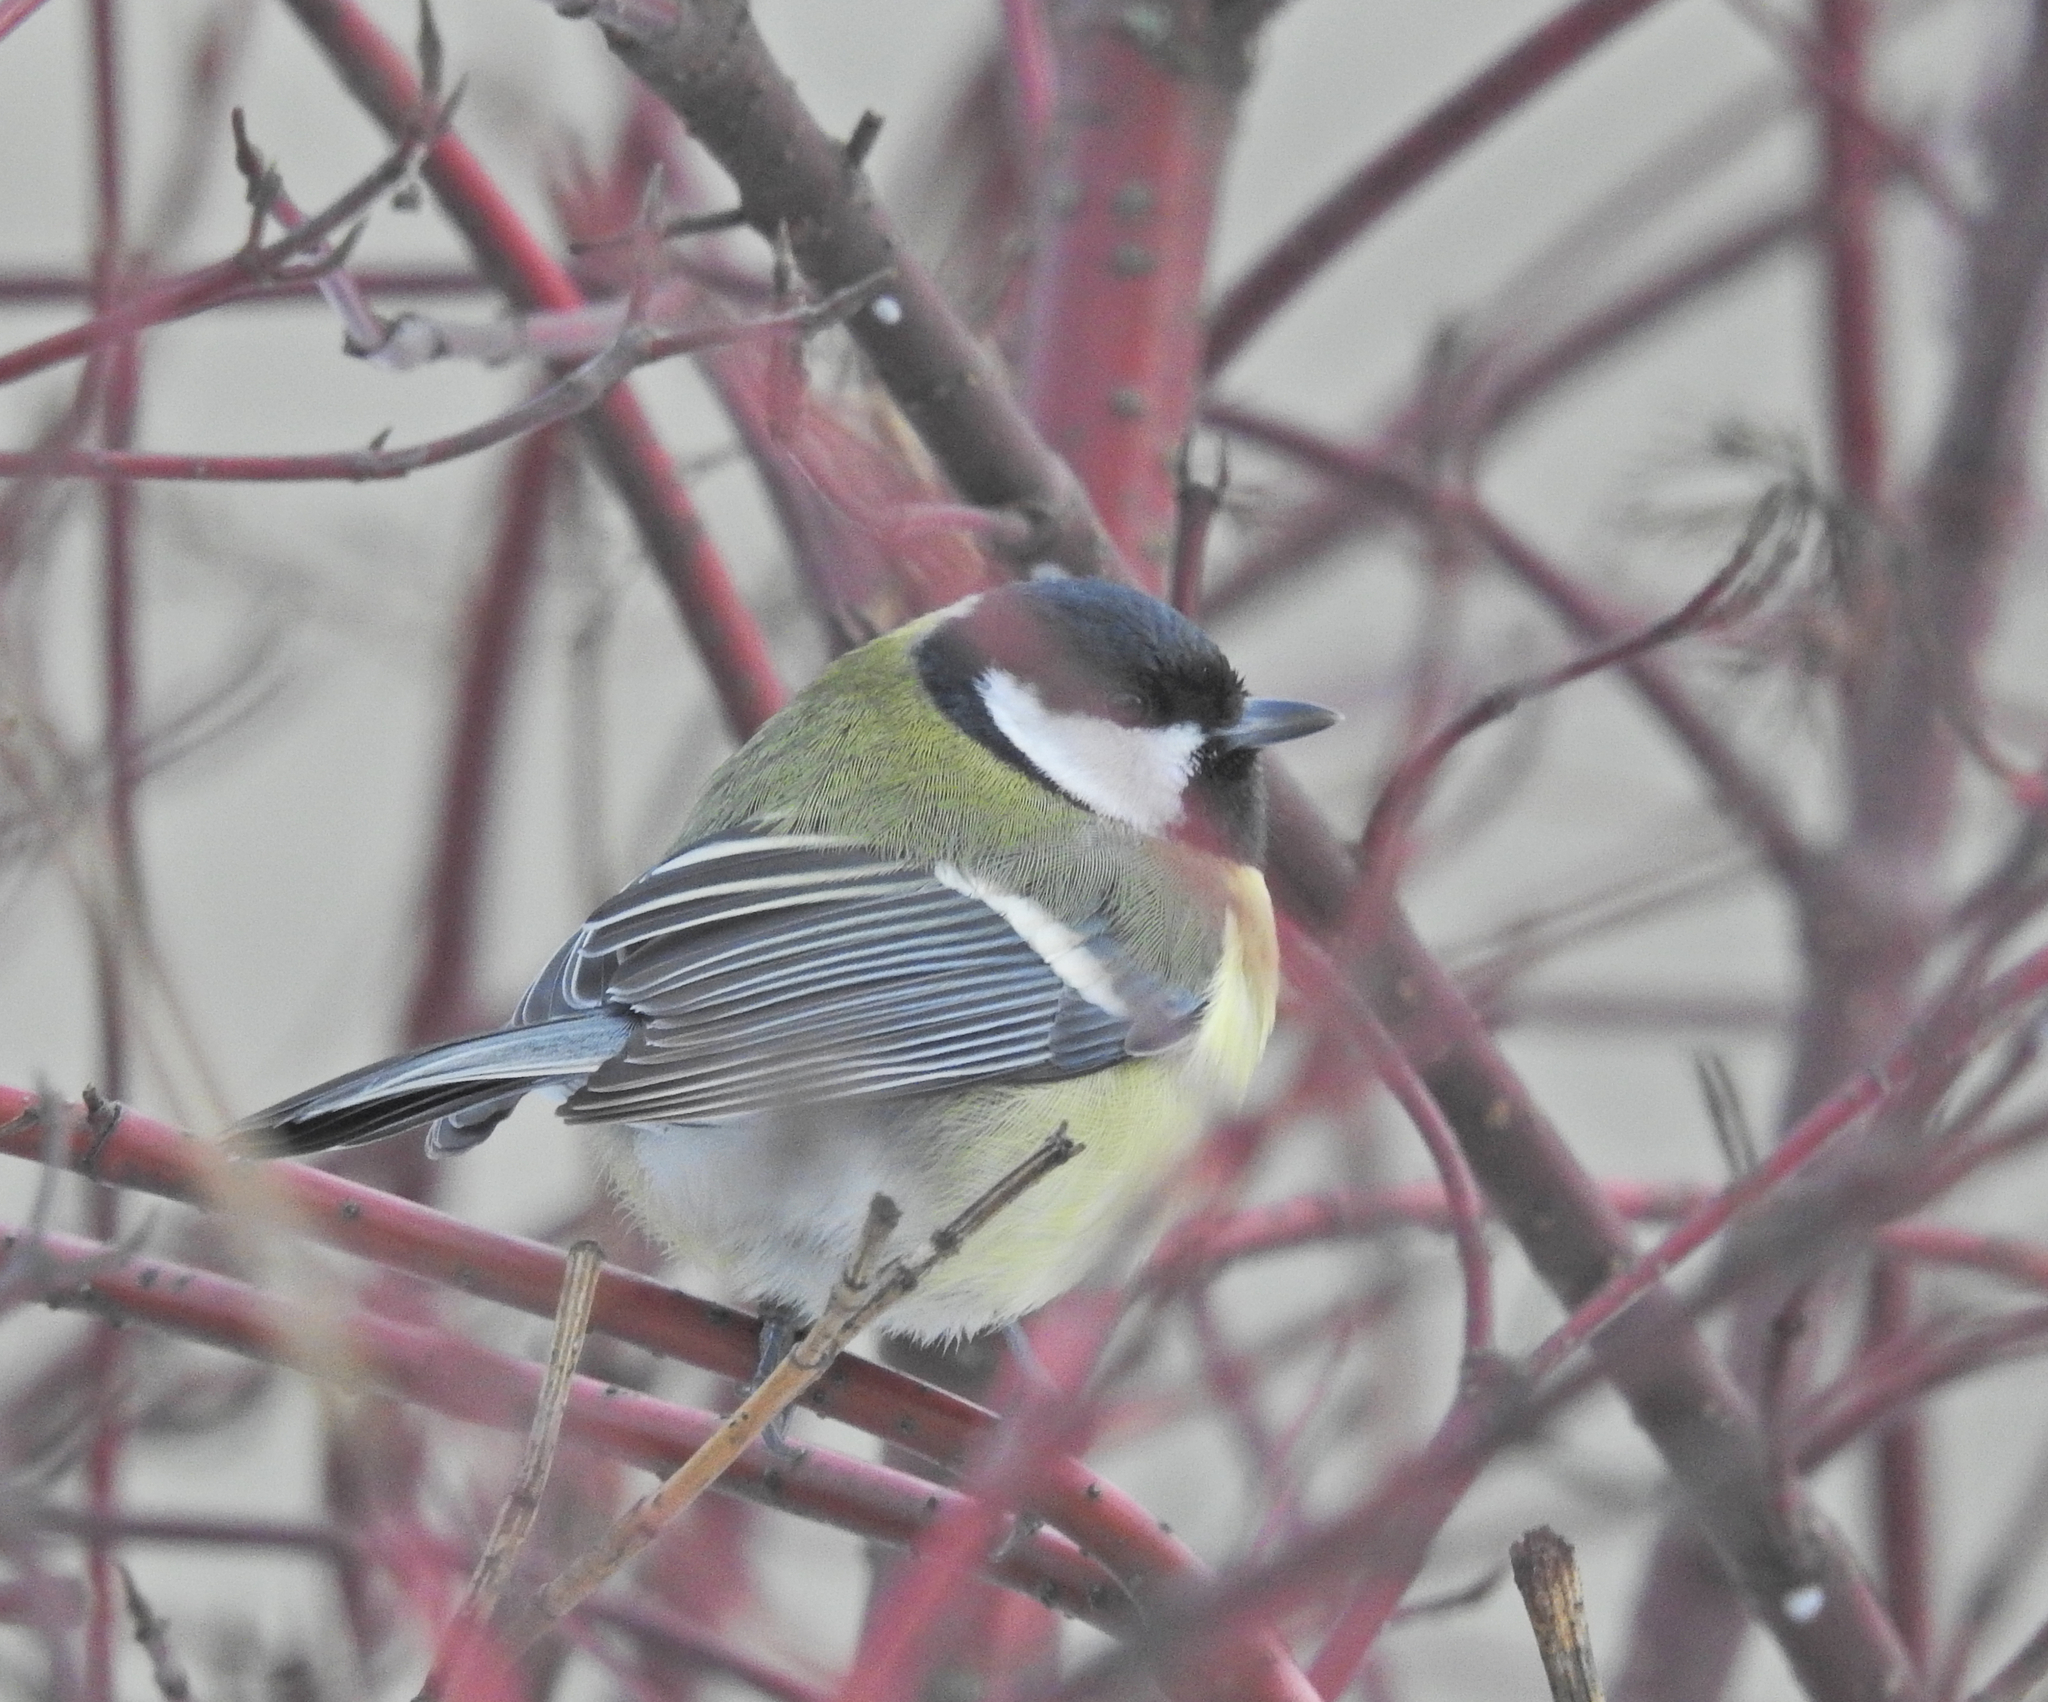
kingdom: Animalia
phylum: Chordata
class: Aves
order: Passeriformes
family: Paridae
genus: Parus
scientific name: Parus major
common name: Great tit
